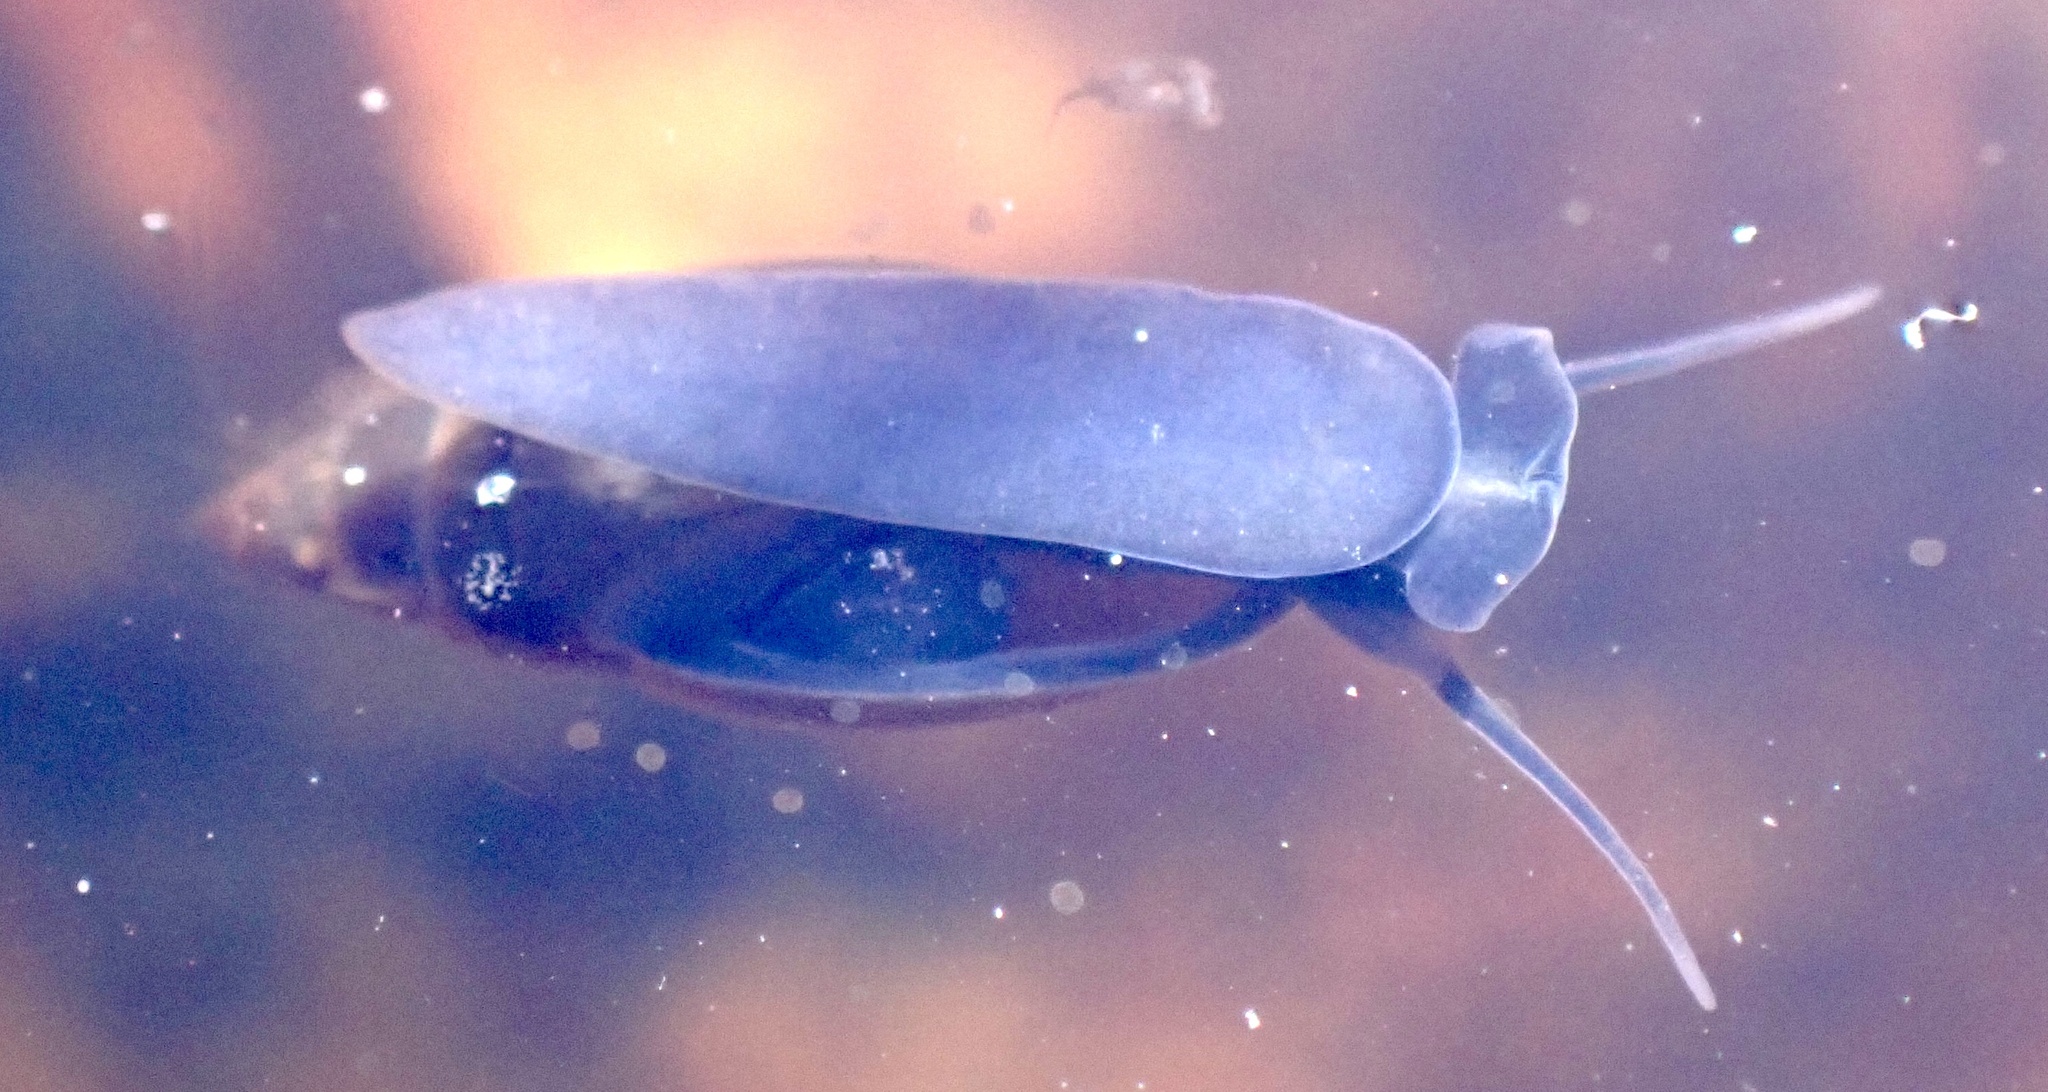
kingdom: Animalia
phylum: Mollusca
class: Gastropoda
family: Physidae
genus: Aplexa
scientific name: Aplexa hypnorum
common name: Moss bladder snail
